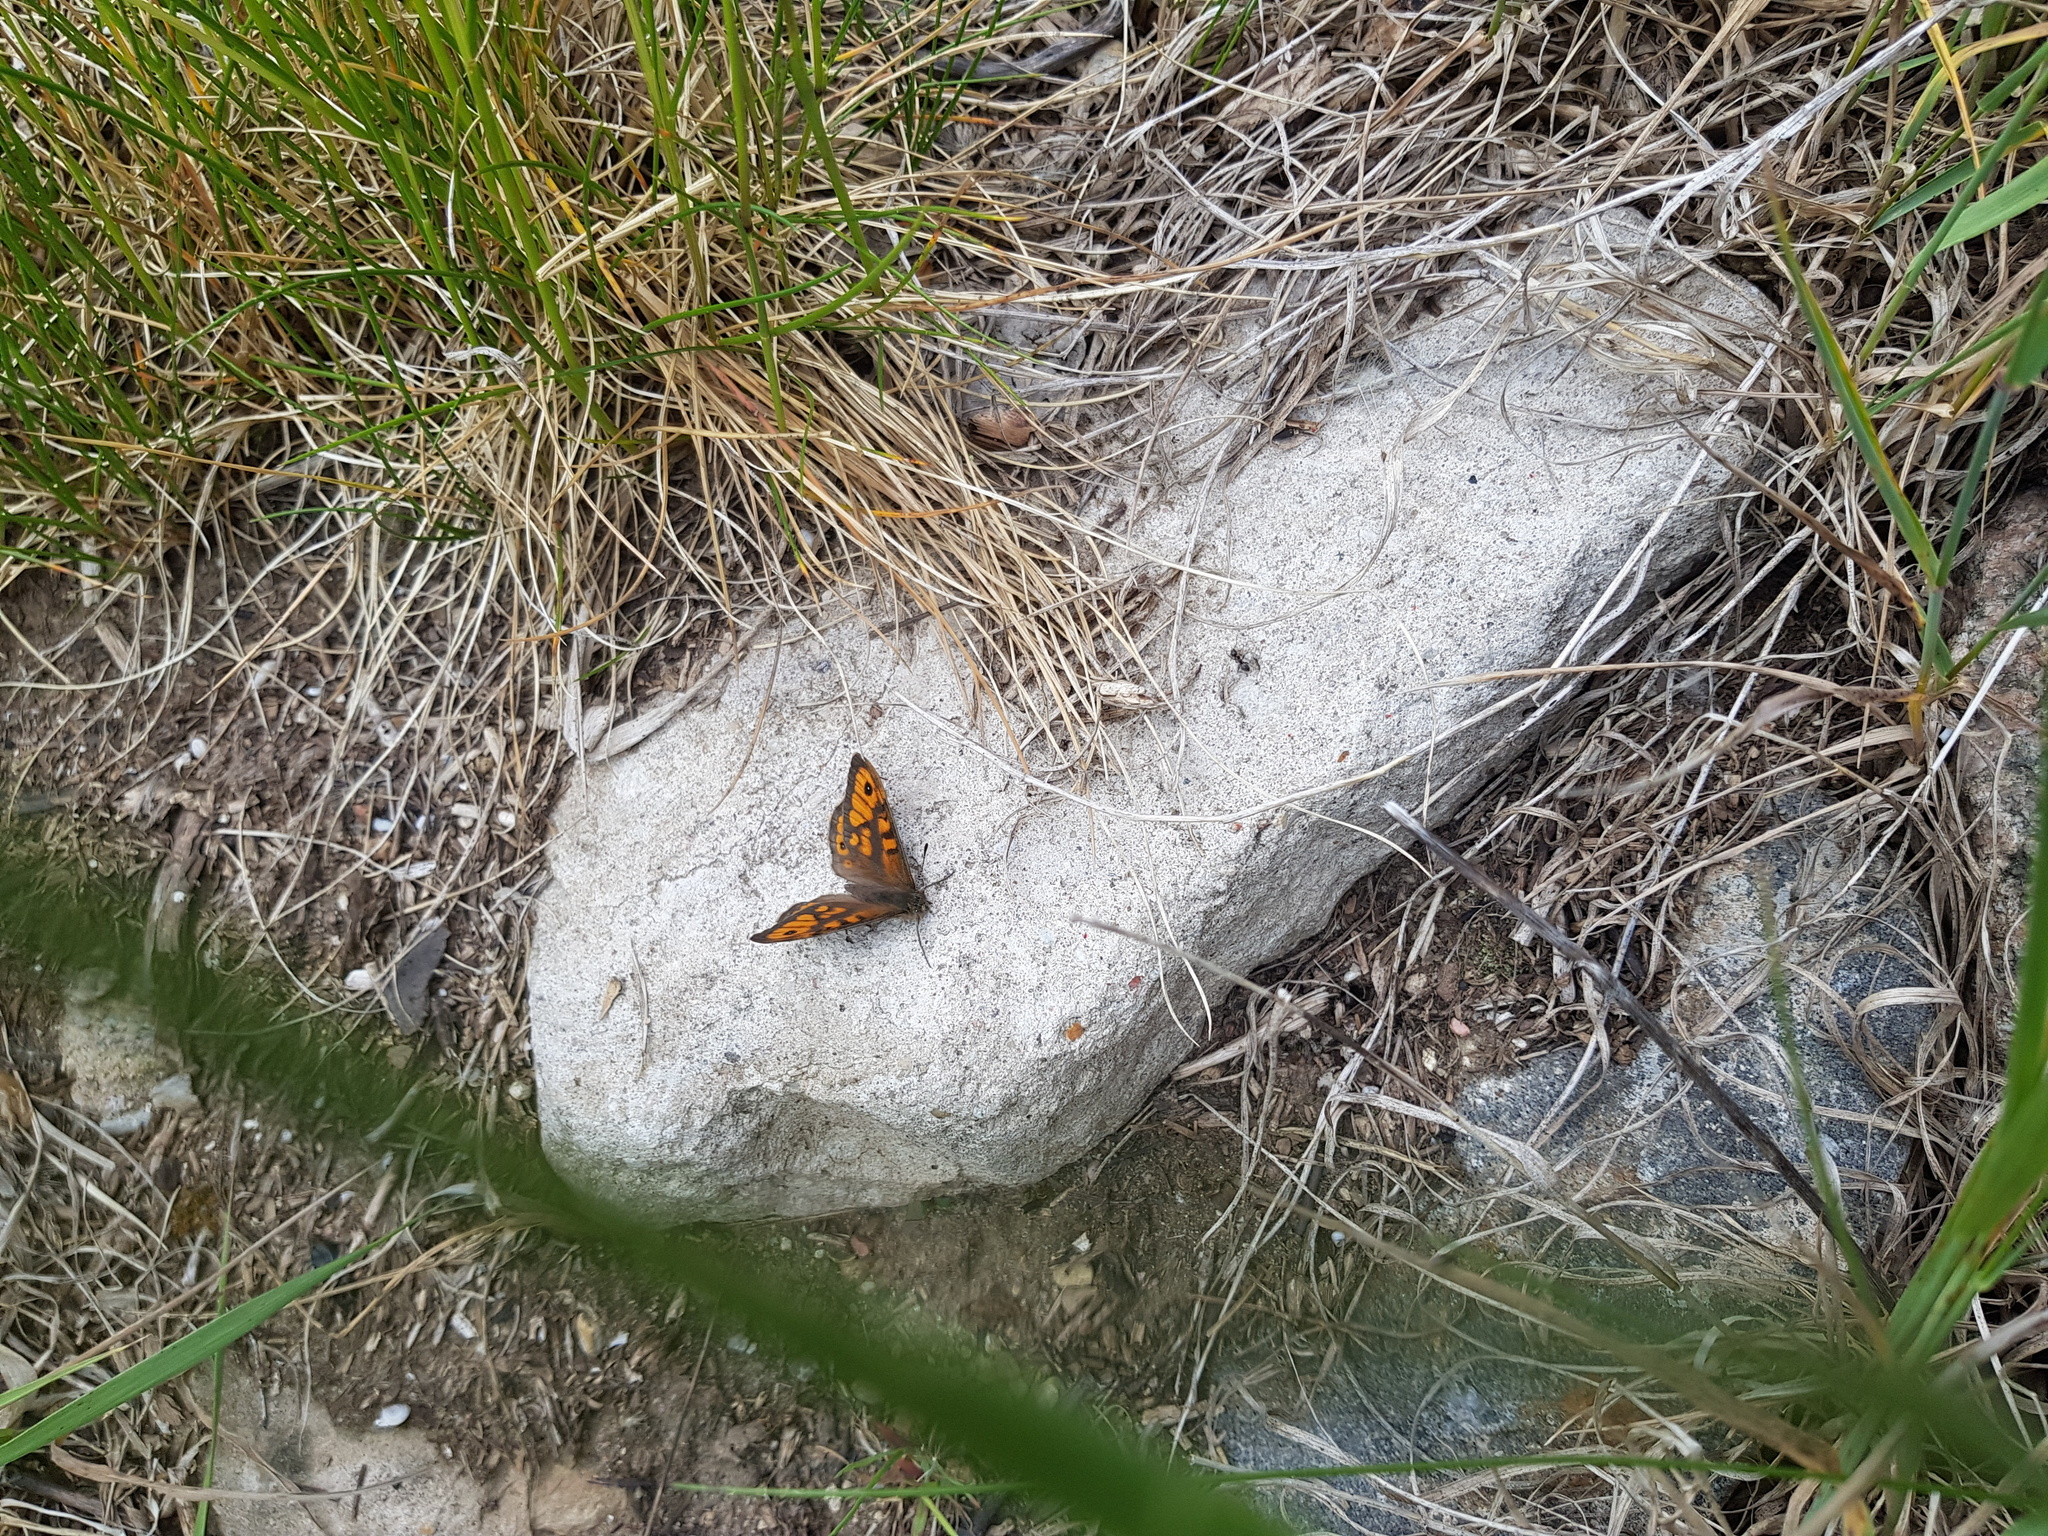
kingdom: Animalia
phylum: Arthropoda
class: Insecta
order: Lepidoptera
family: Nymphalidae
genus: Pararge
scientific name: Pararge Lasiommata megera
